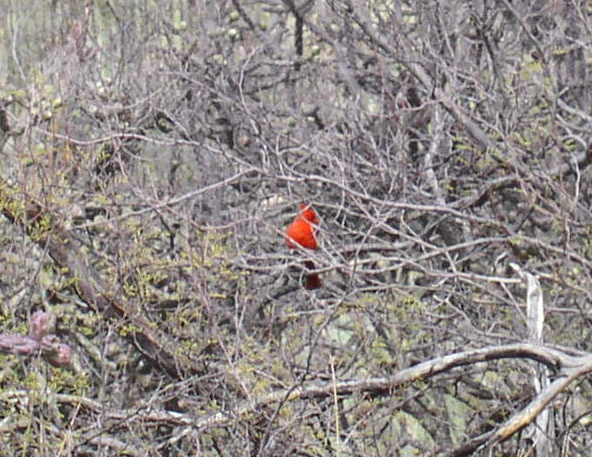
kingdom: Animalia
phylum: Chordata
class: Aves
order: Passeriformes
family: Cardinalidae
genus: Cardinalis
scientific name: Cardinalis cardinalis
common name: Northern cardinal
